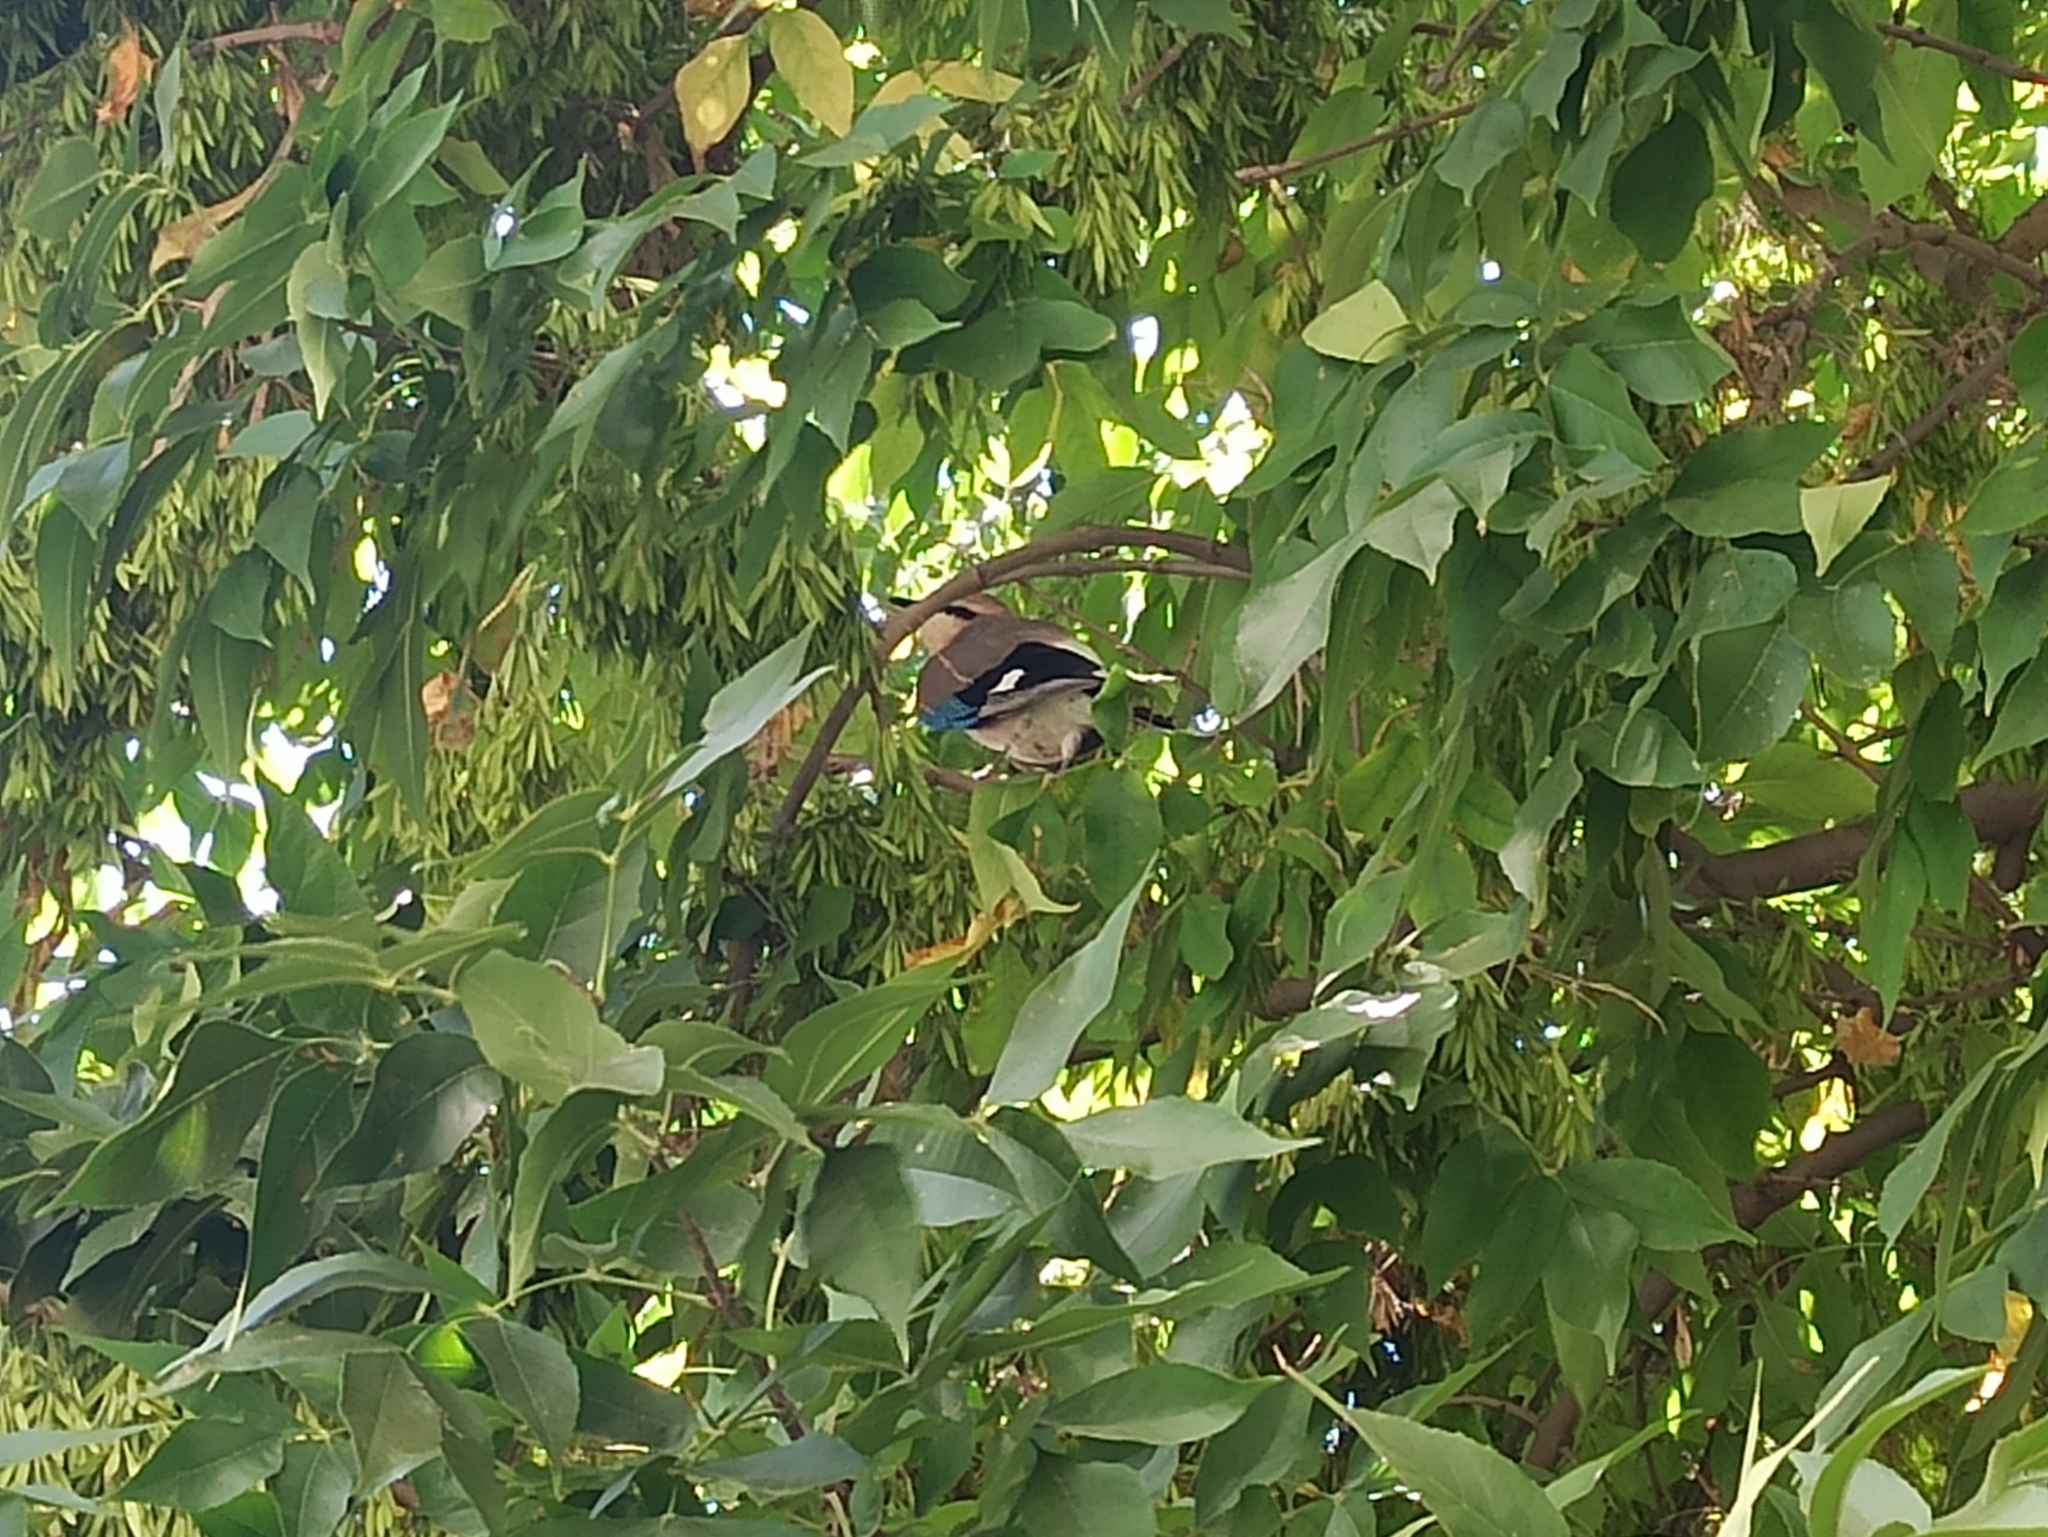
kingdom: Animalia
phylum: Chordata
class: Aves
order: Passeriformes
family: Corvidae
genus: Garrulus
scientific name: Garrulus glandarius
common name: Eurasian jay
